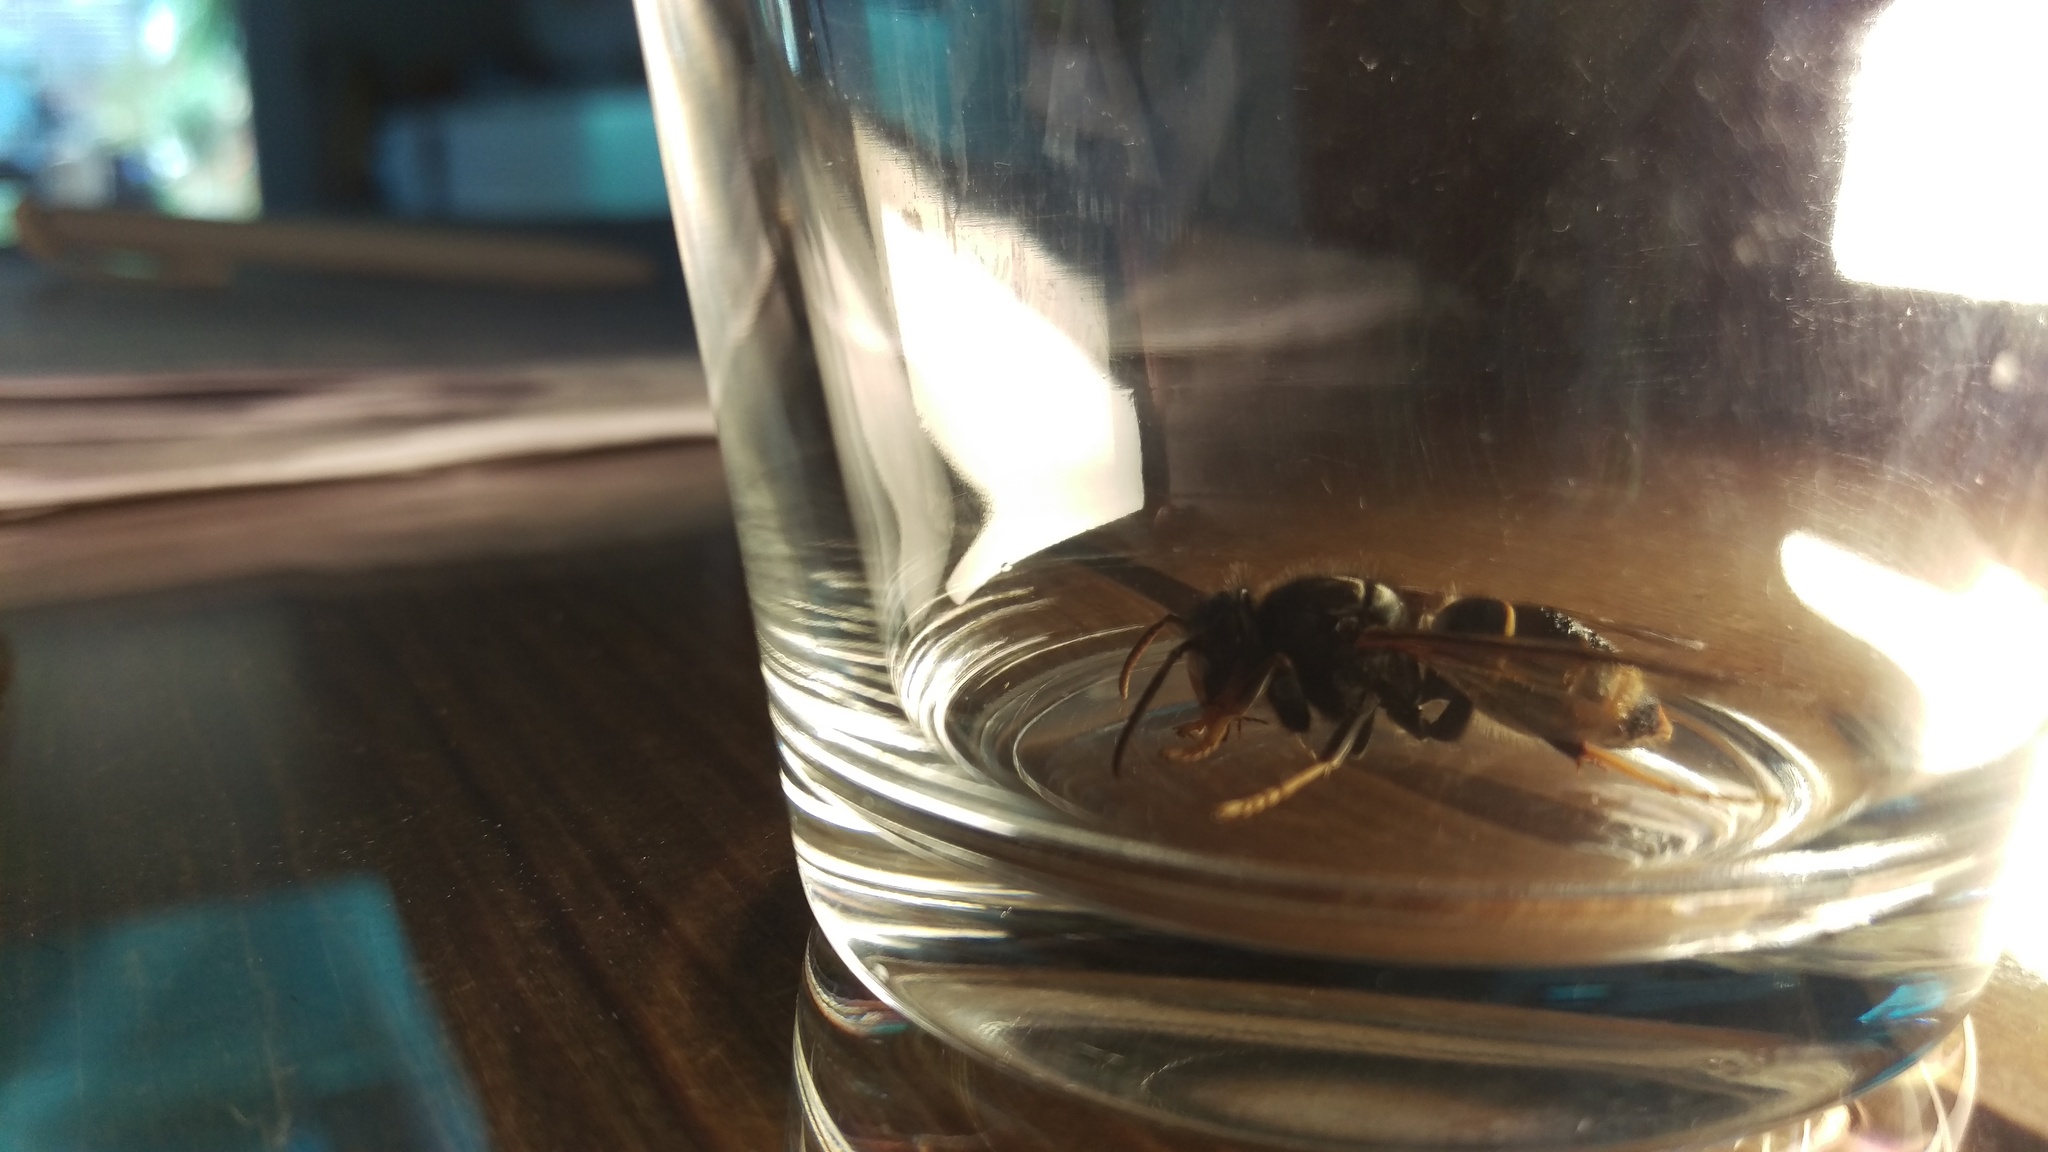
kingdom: Animalia
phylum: Arthropoda
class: Insecta
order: Hymenoptera
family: Vespidae
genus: Vespa
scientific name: Vespa velutina
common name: Asian hornet
